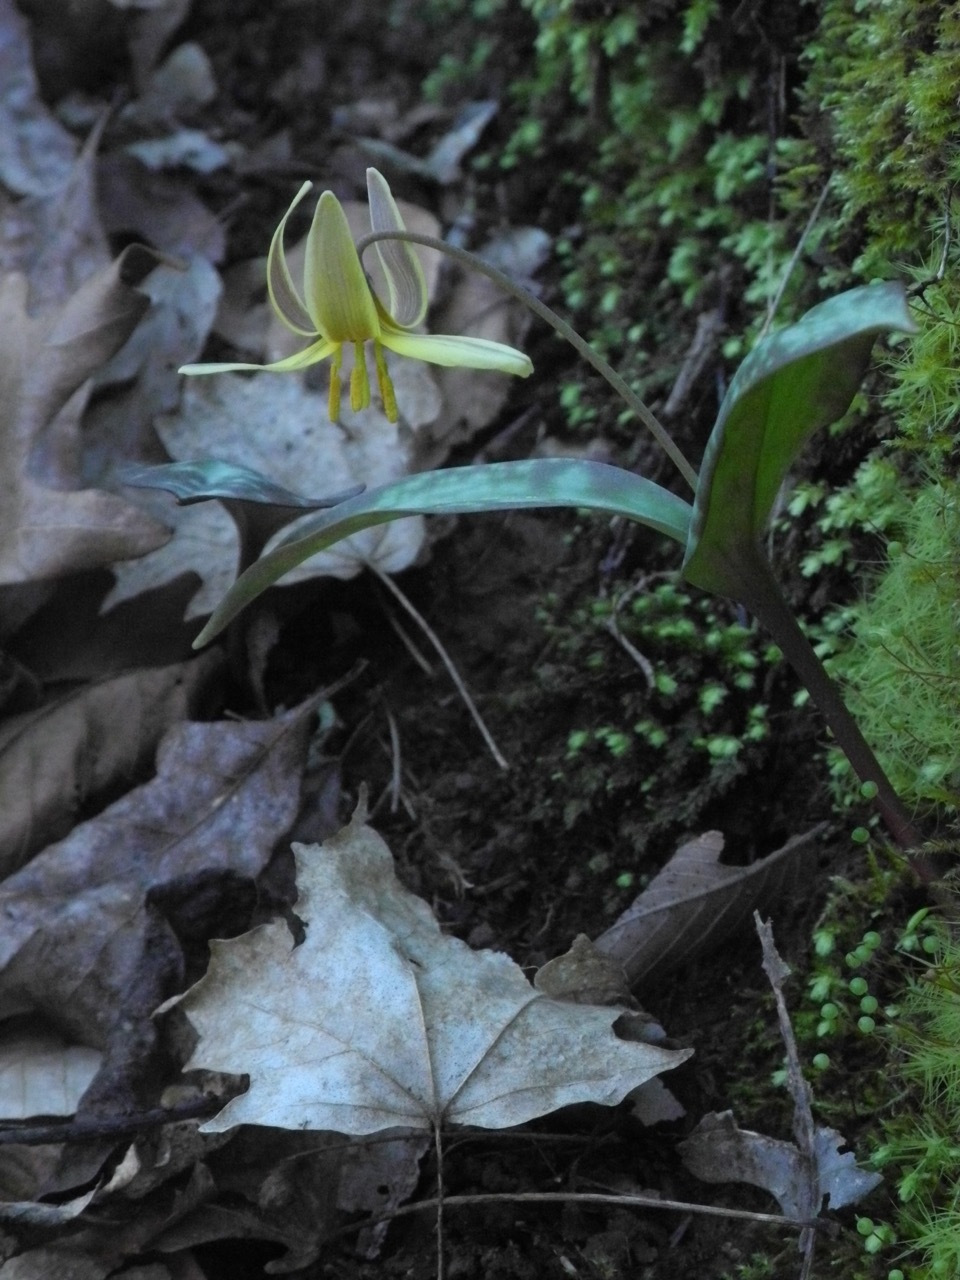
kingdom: Plantae
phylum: Tracheophyta
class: Liliopsida
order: Liliales
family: Liliaceae
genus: Erythronium
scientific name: Erythronium americanum
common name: Yellow adder's-tongue
